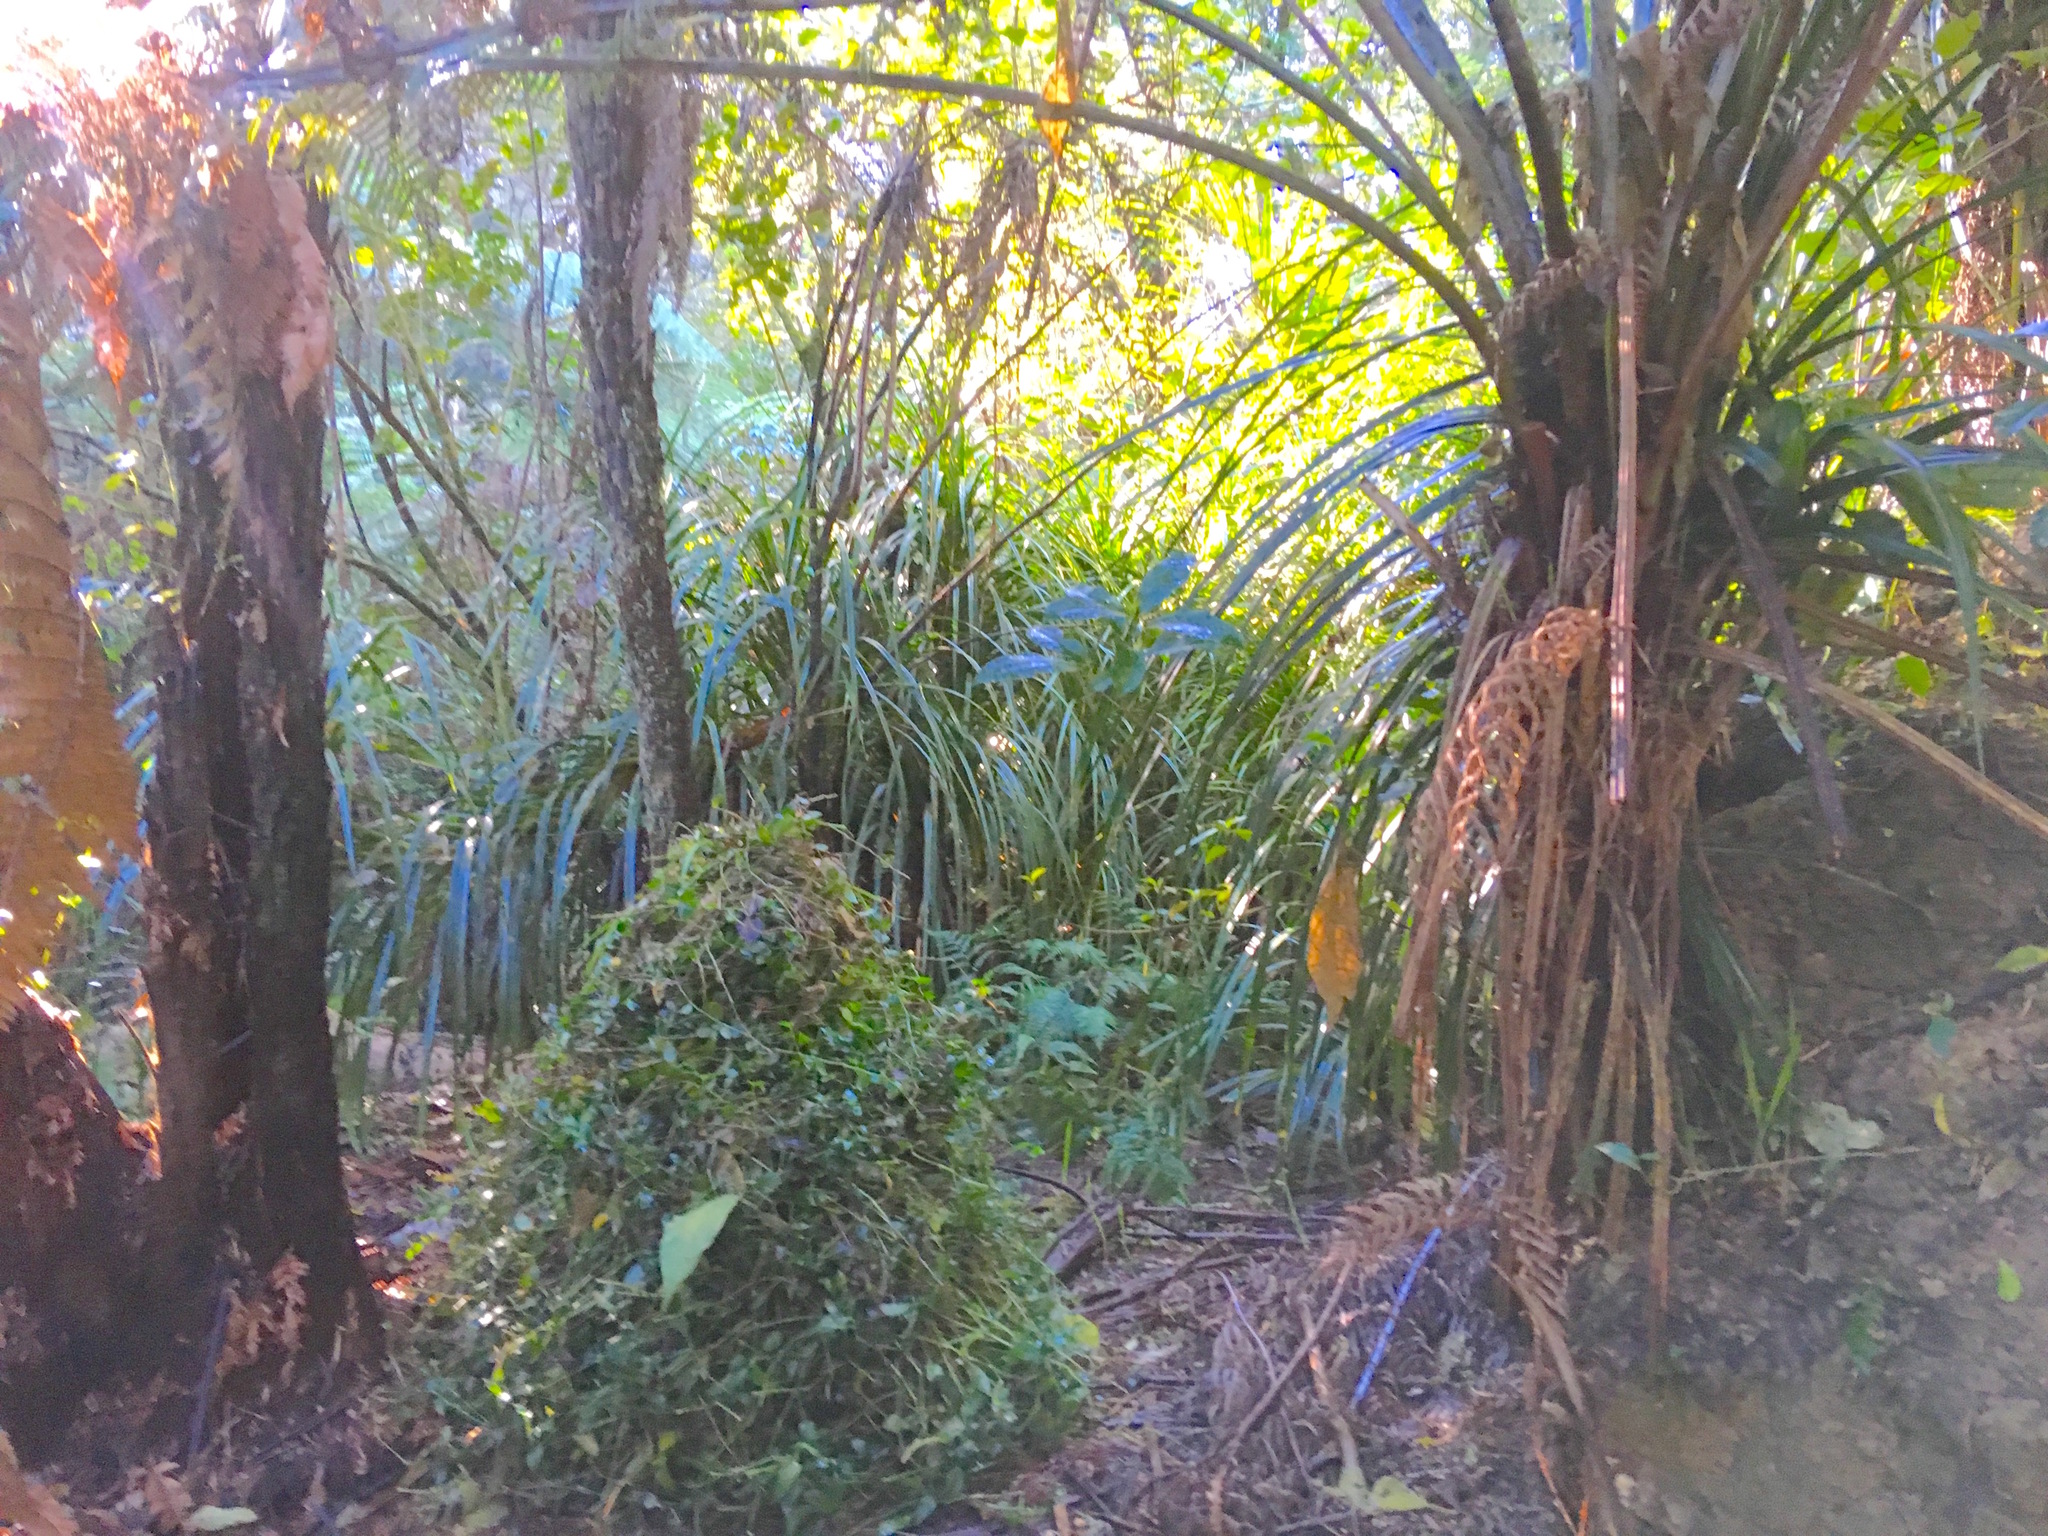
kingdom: Plantae
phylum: Tracheophyta
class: Liliopsida
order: Pandanales
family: Pandanaceae
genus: Freycinetia
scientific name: Freycinetia banksii
